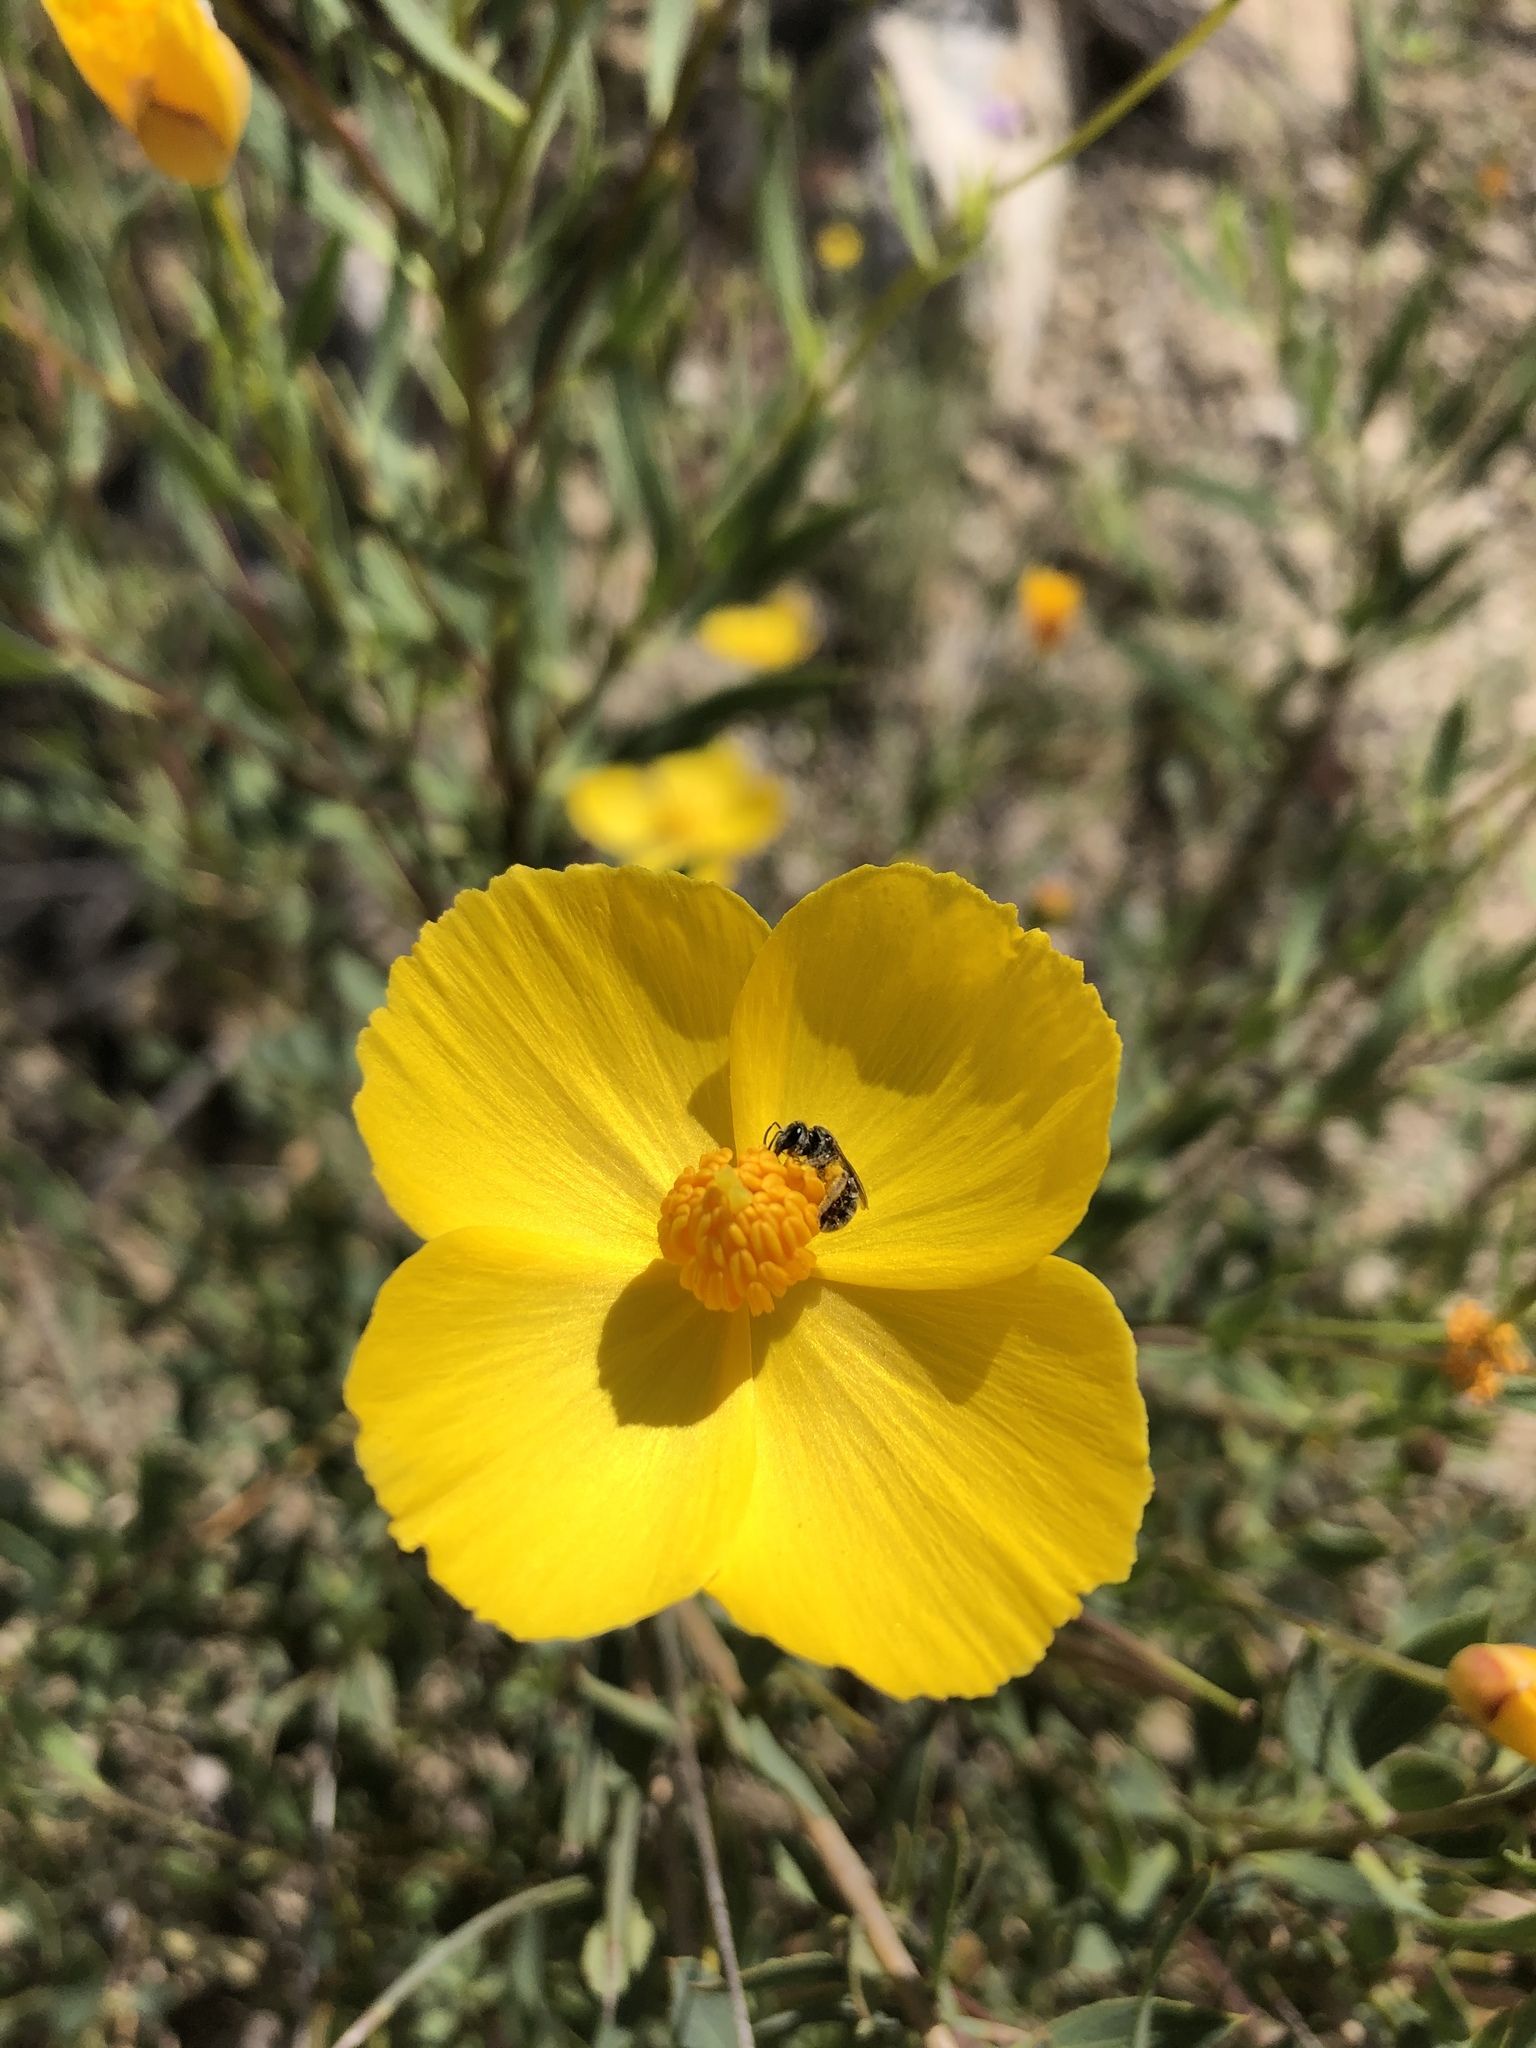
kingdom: Animalia
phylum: Arthropoda
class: Insecta
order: Hymenoptera
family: Halictidae
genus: Halictus
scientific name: Halictus tripartitus
